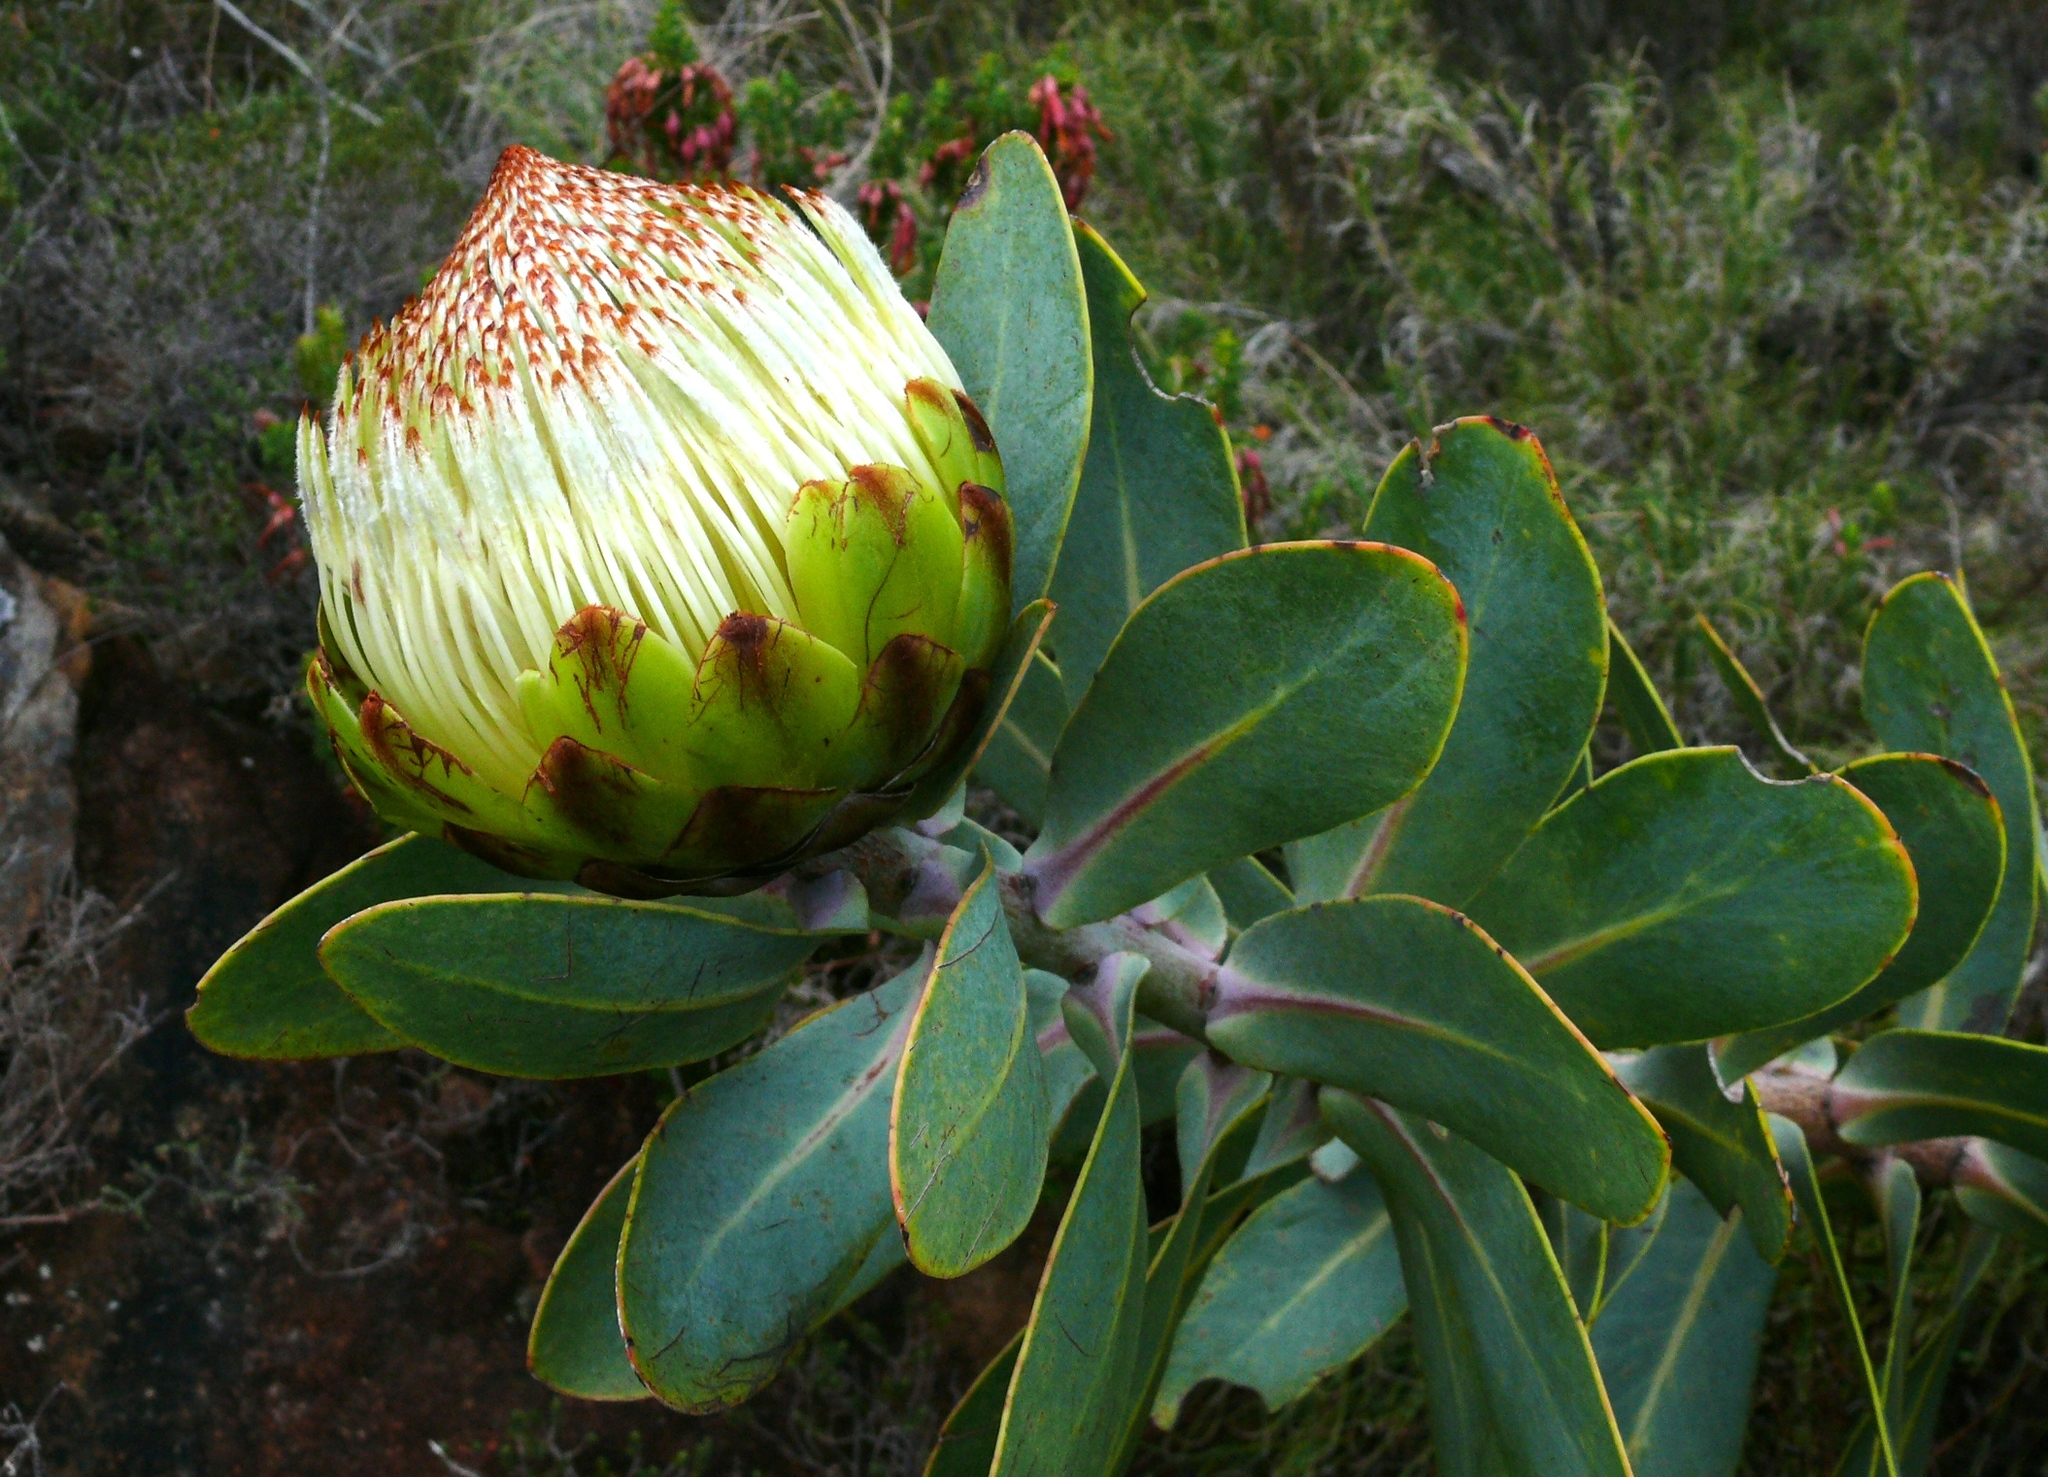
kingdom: Plantae
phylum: Tracheophyta
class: Magnoliopsida
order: Proteales
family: Proteaceae
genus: Protea
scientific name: Protea nitida
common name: Tree protea
